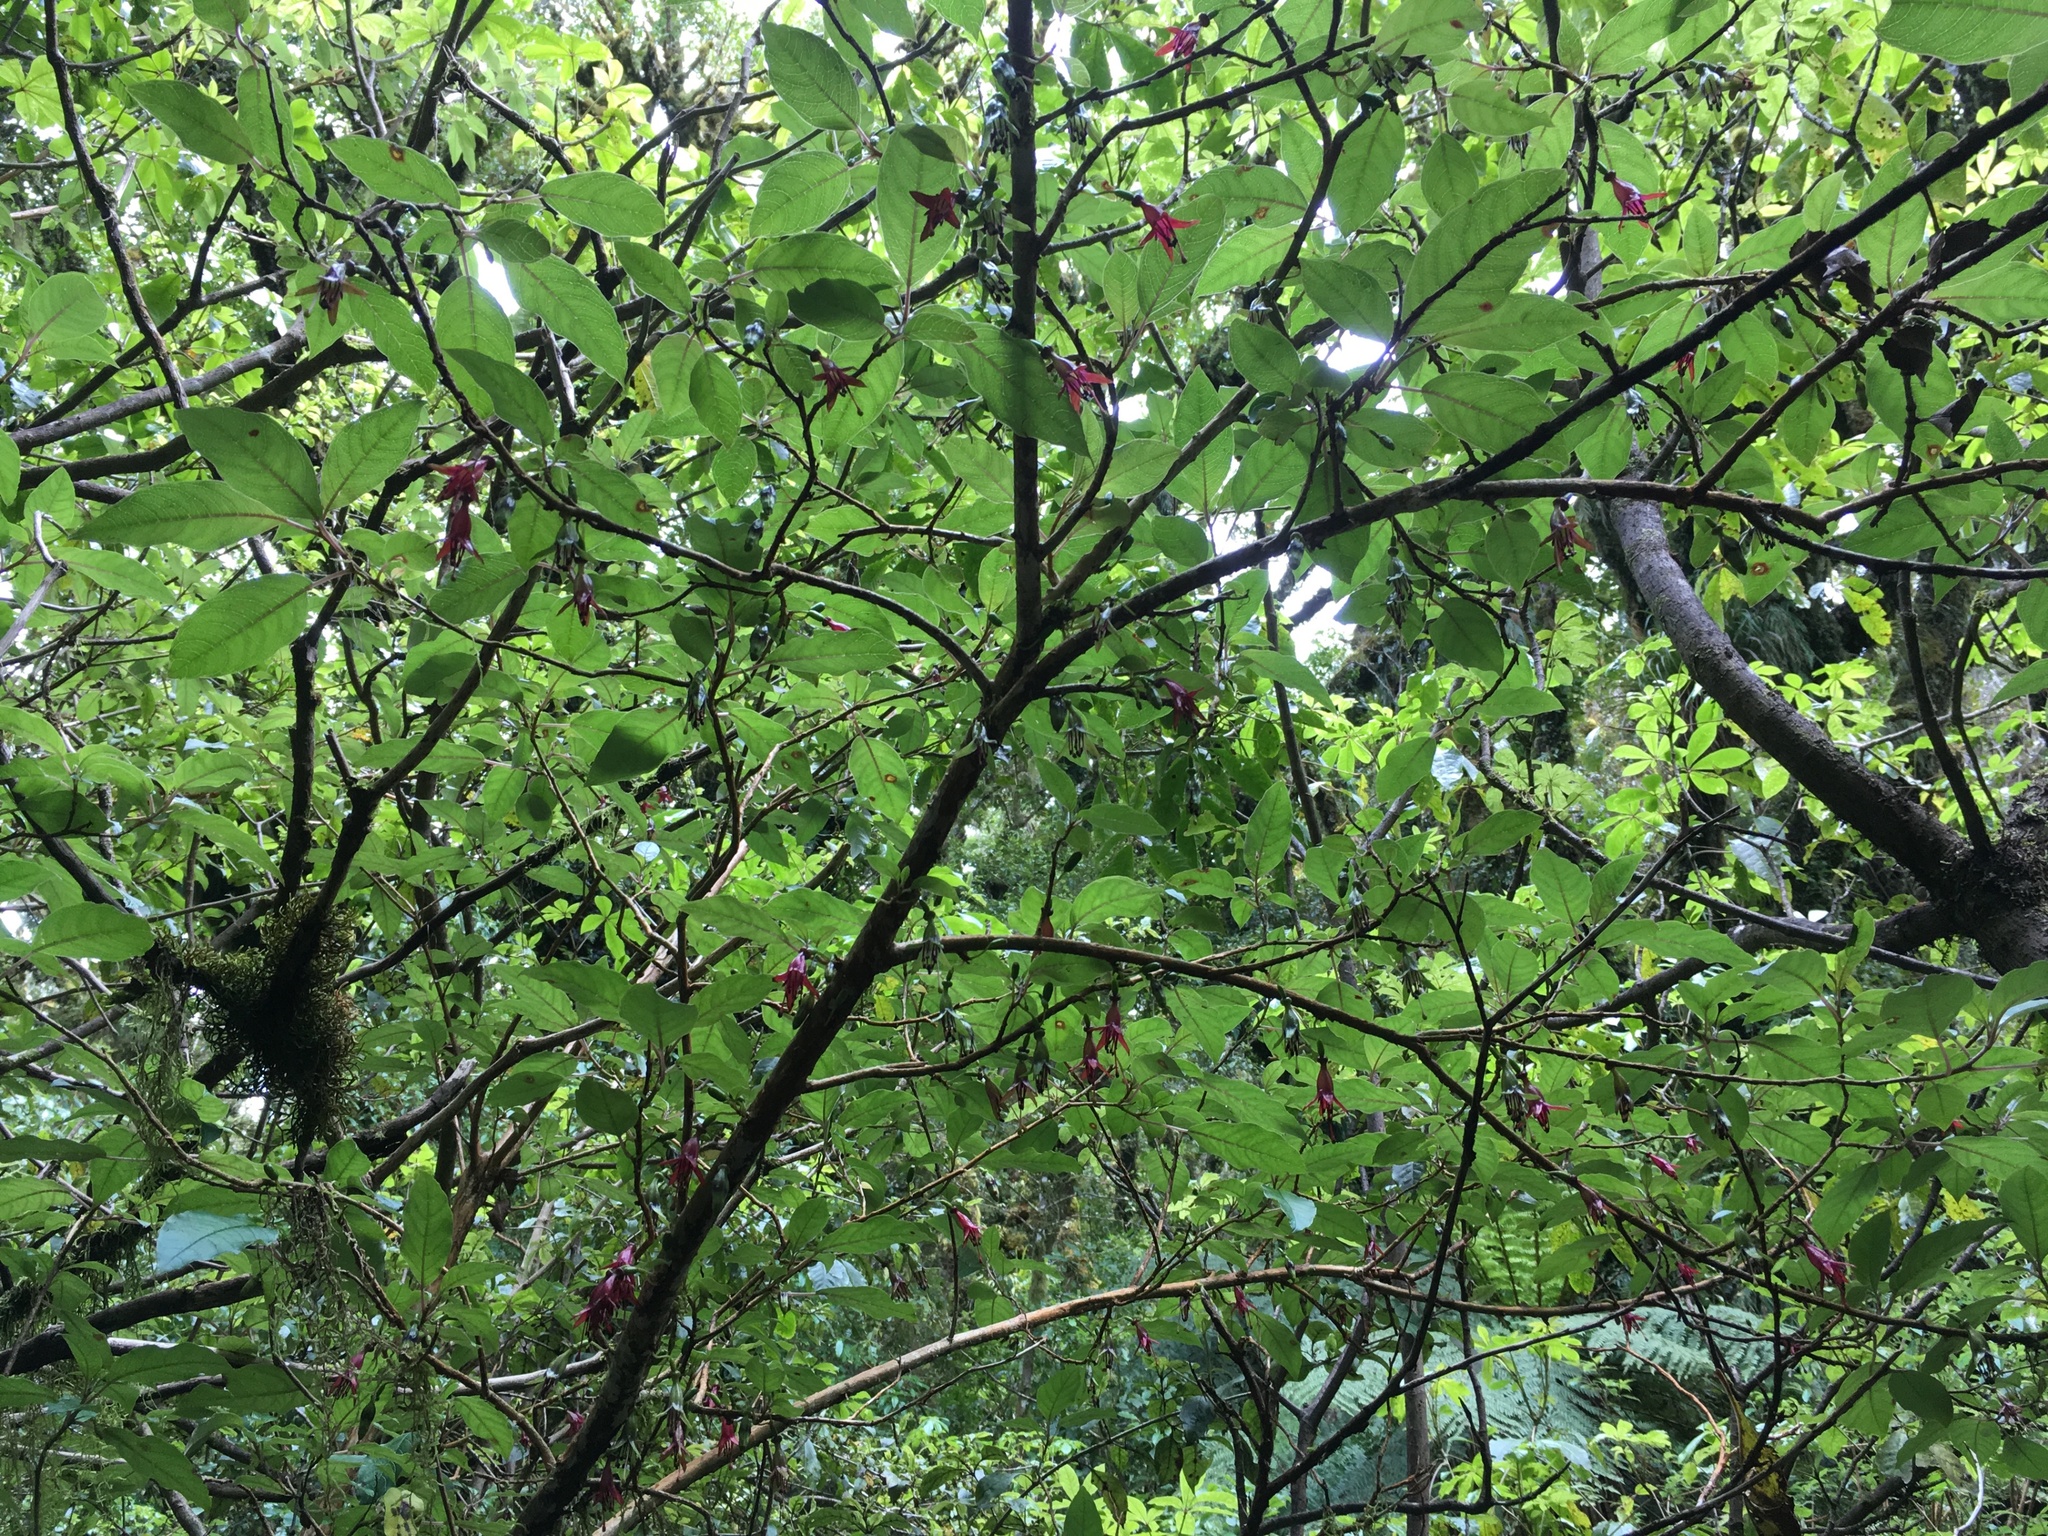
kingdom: Plantae
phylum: Tracheophyta
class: Magnoliopsida
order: Myrtales
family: Onagraceae
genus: Fuchsia
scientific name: Fuchsia excorticata
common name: Tree fuchsia
